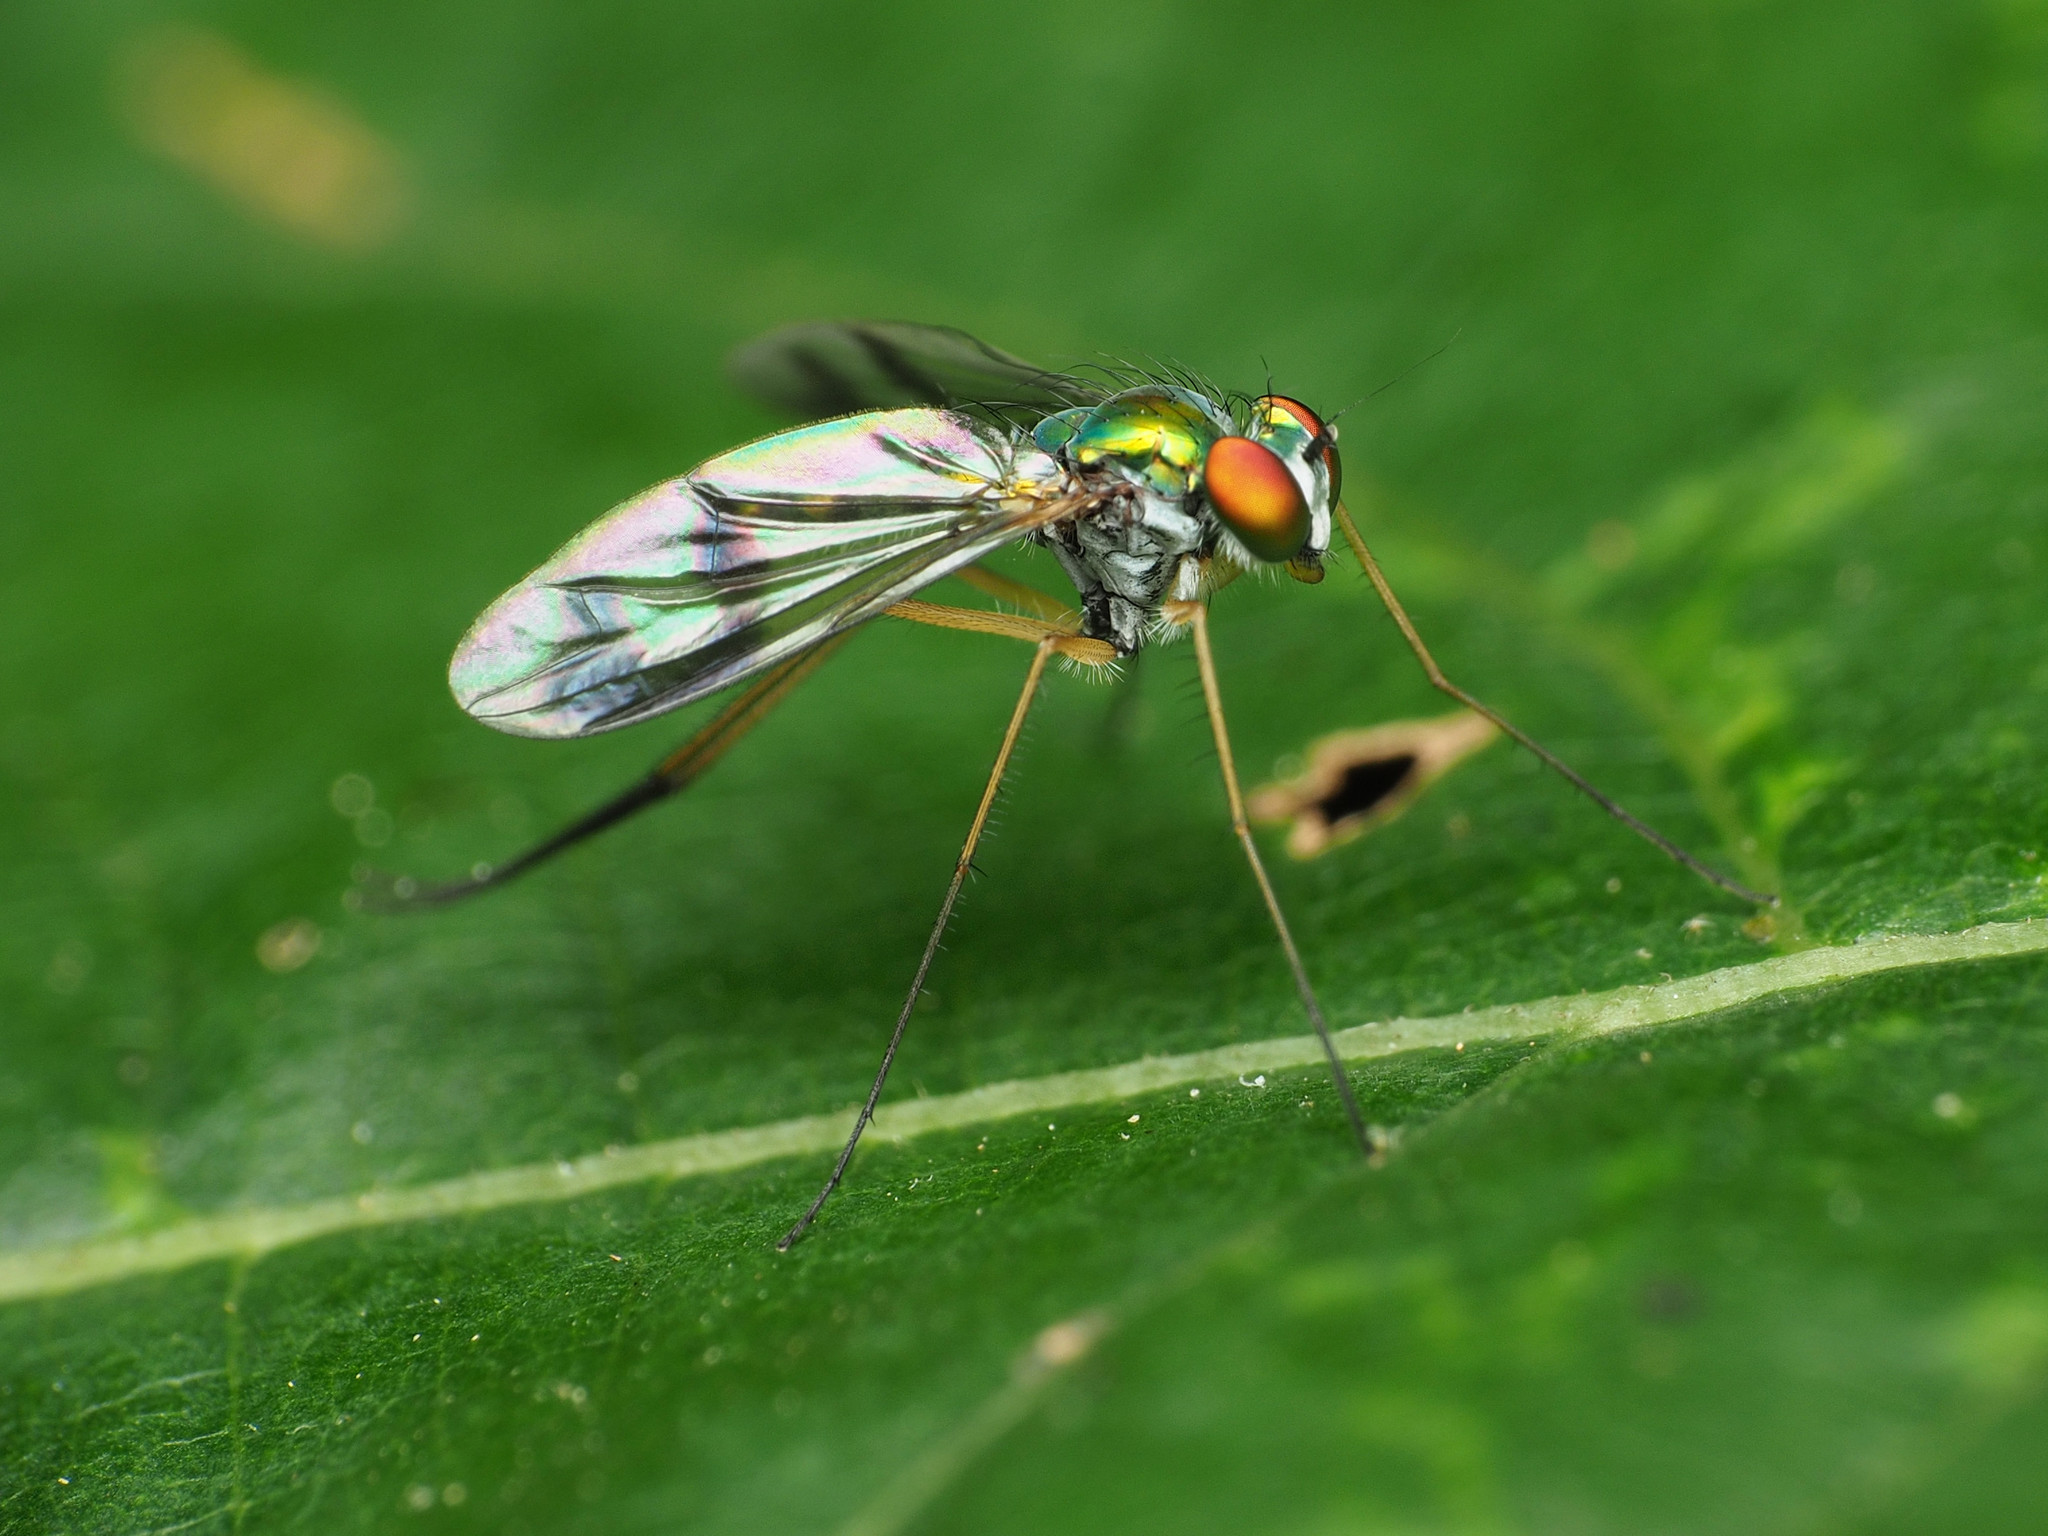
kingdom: Animalia
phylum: Arthropoda
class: Insecta
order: Diptera
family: Dolichopodidae
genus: Condylostylus
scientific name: Condylostylus sipho
